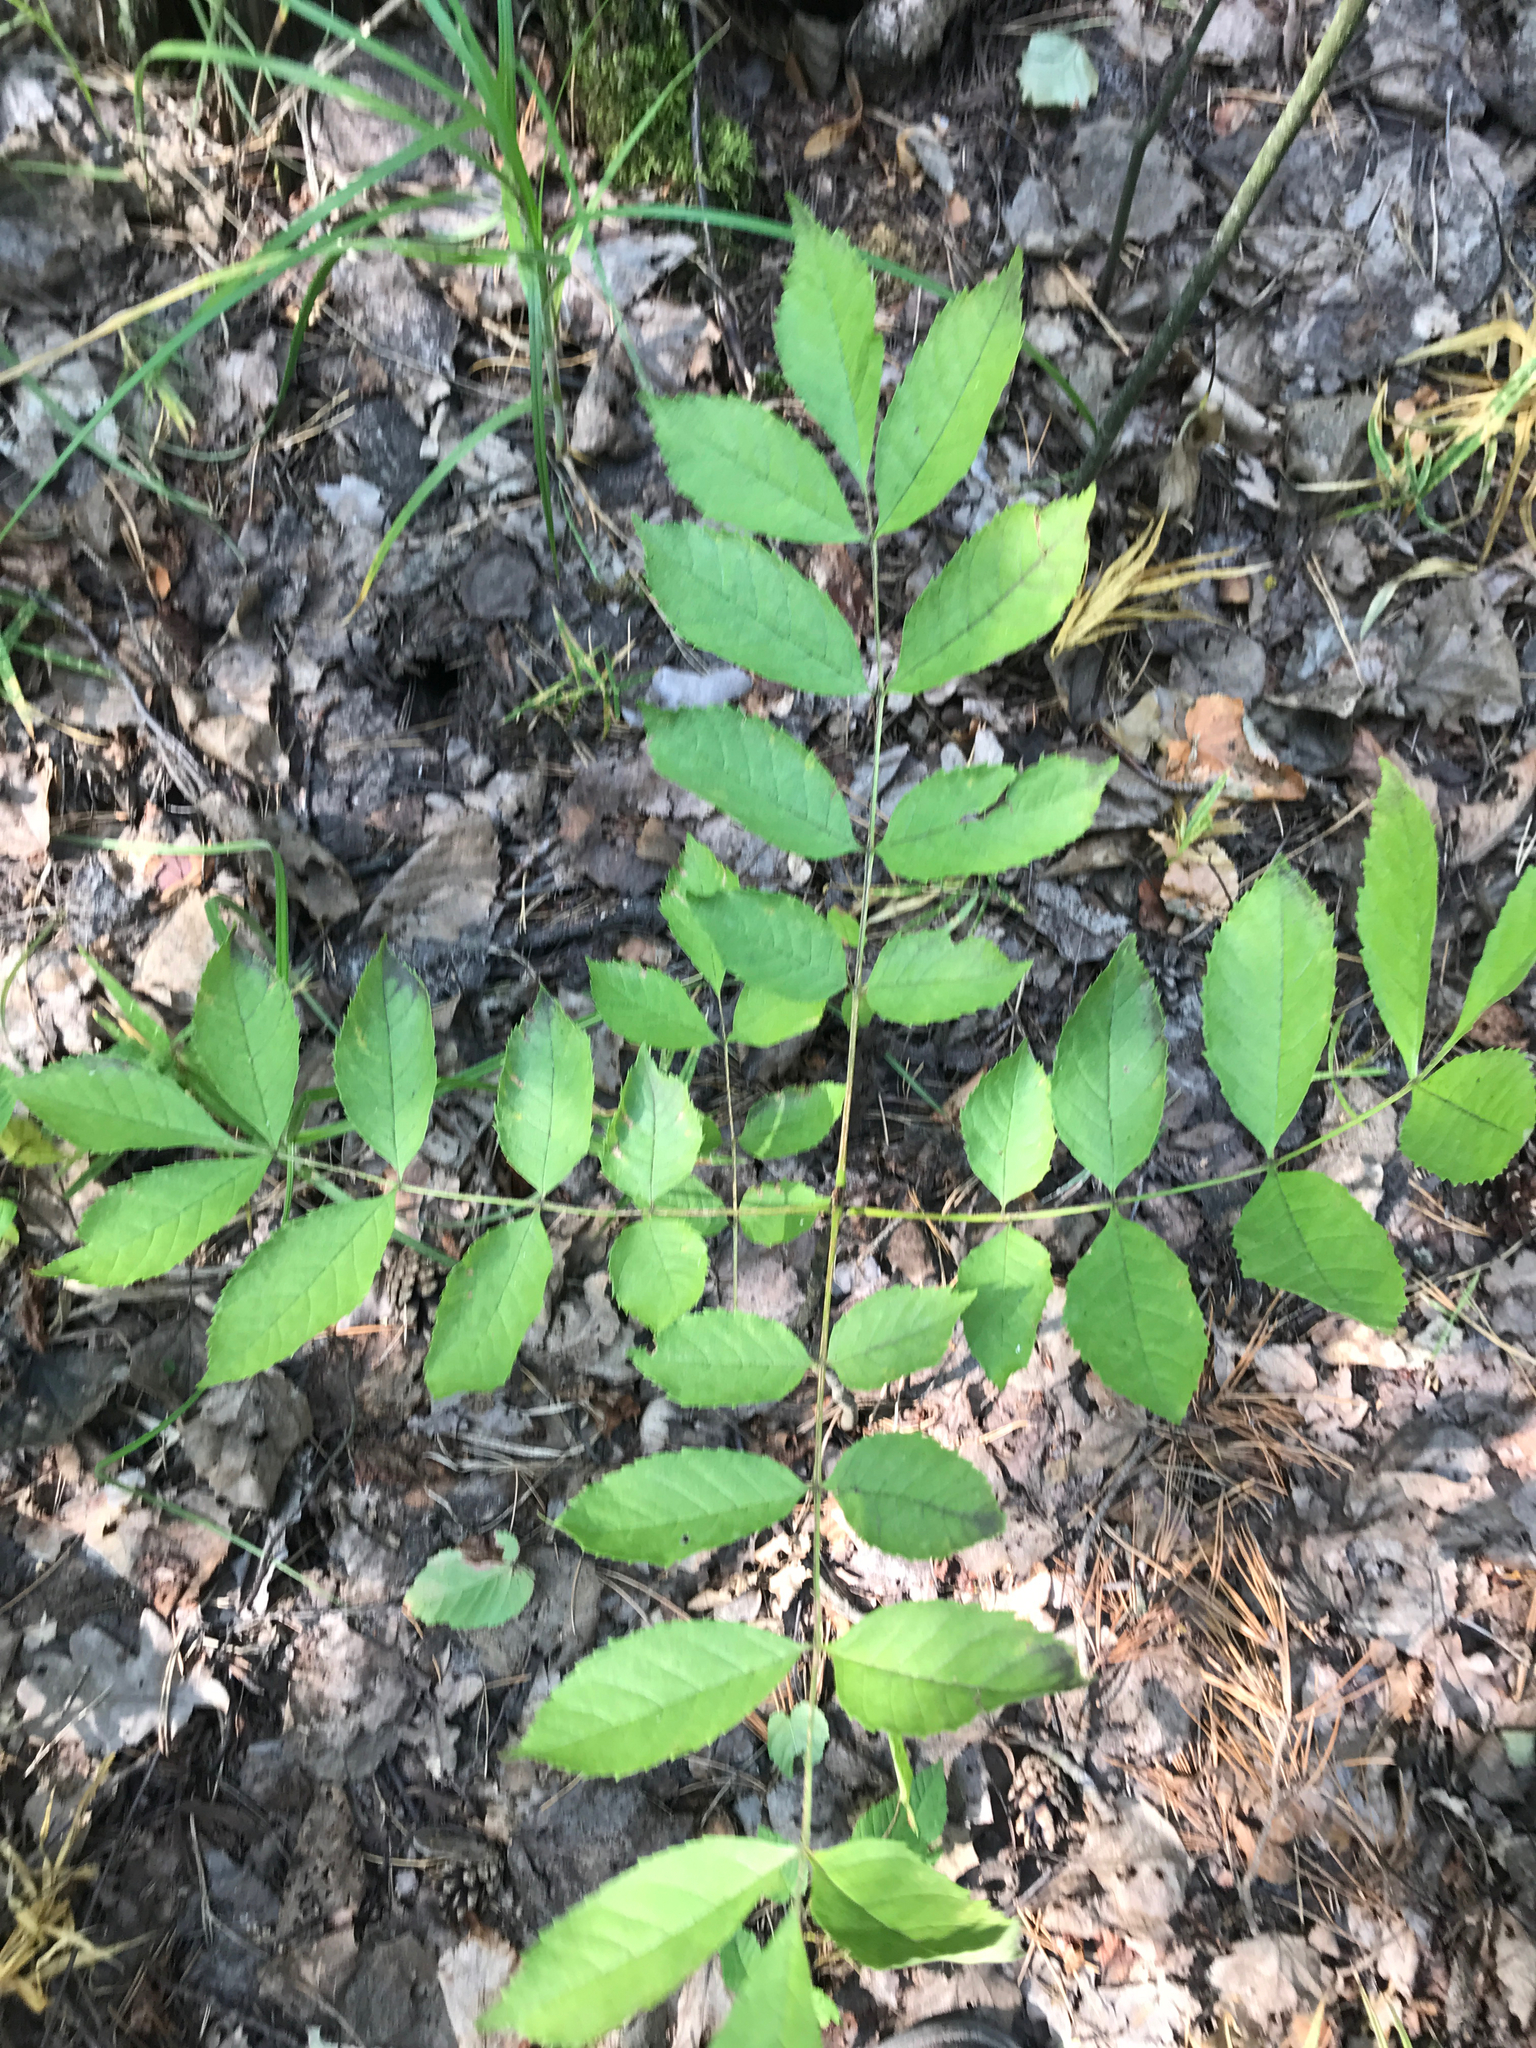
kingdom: Plantae
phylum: Tracheophyta
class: Magnoliopsida
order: Lamiales
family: Oleaceae
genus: Fraxinus
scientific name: Fraxinus excelsior
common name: European ash
